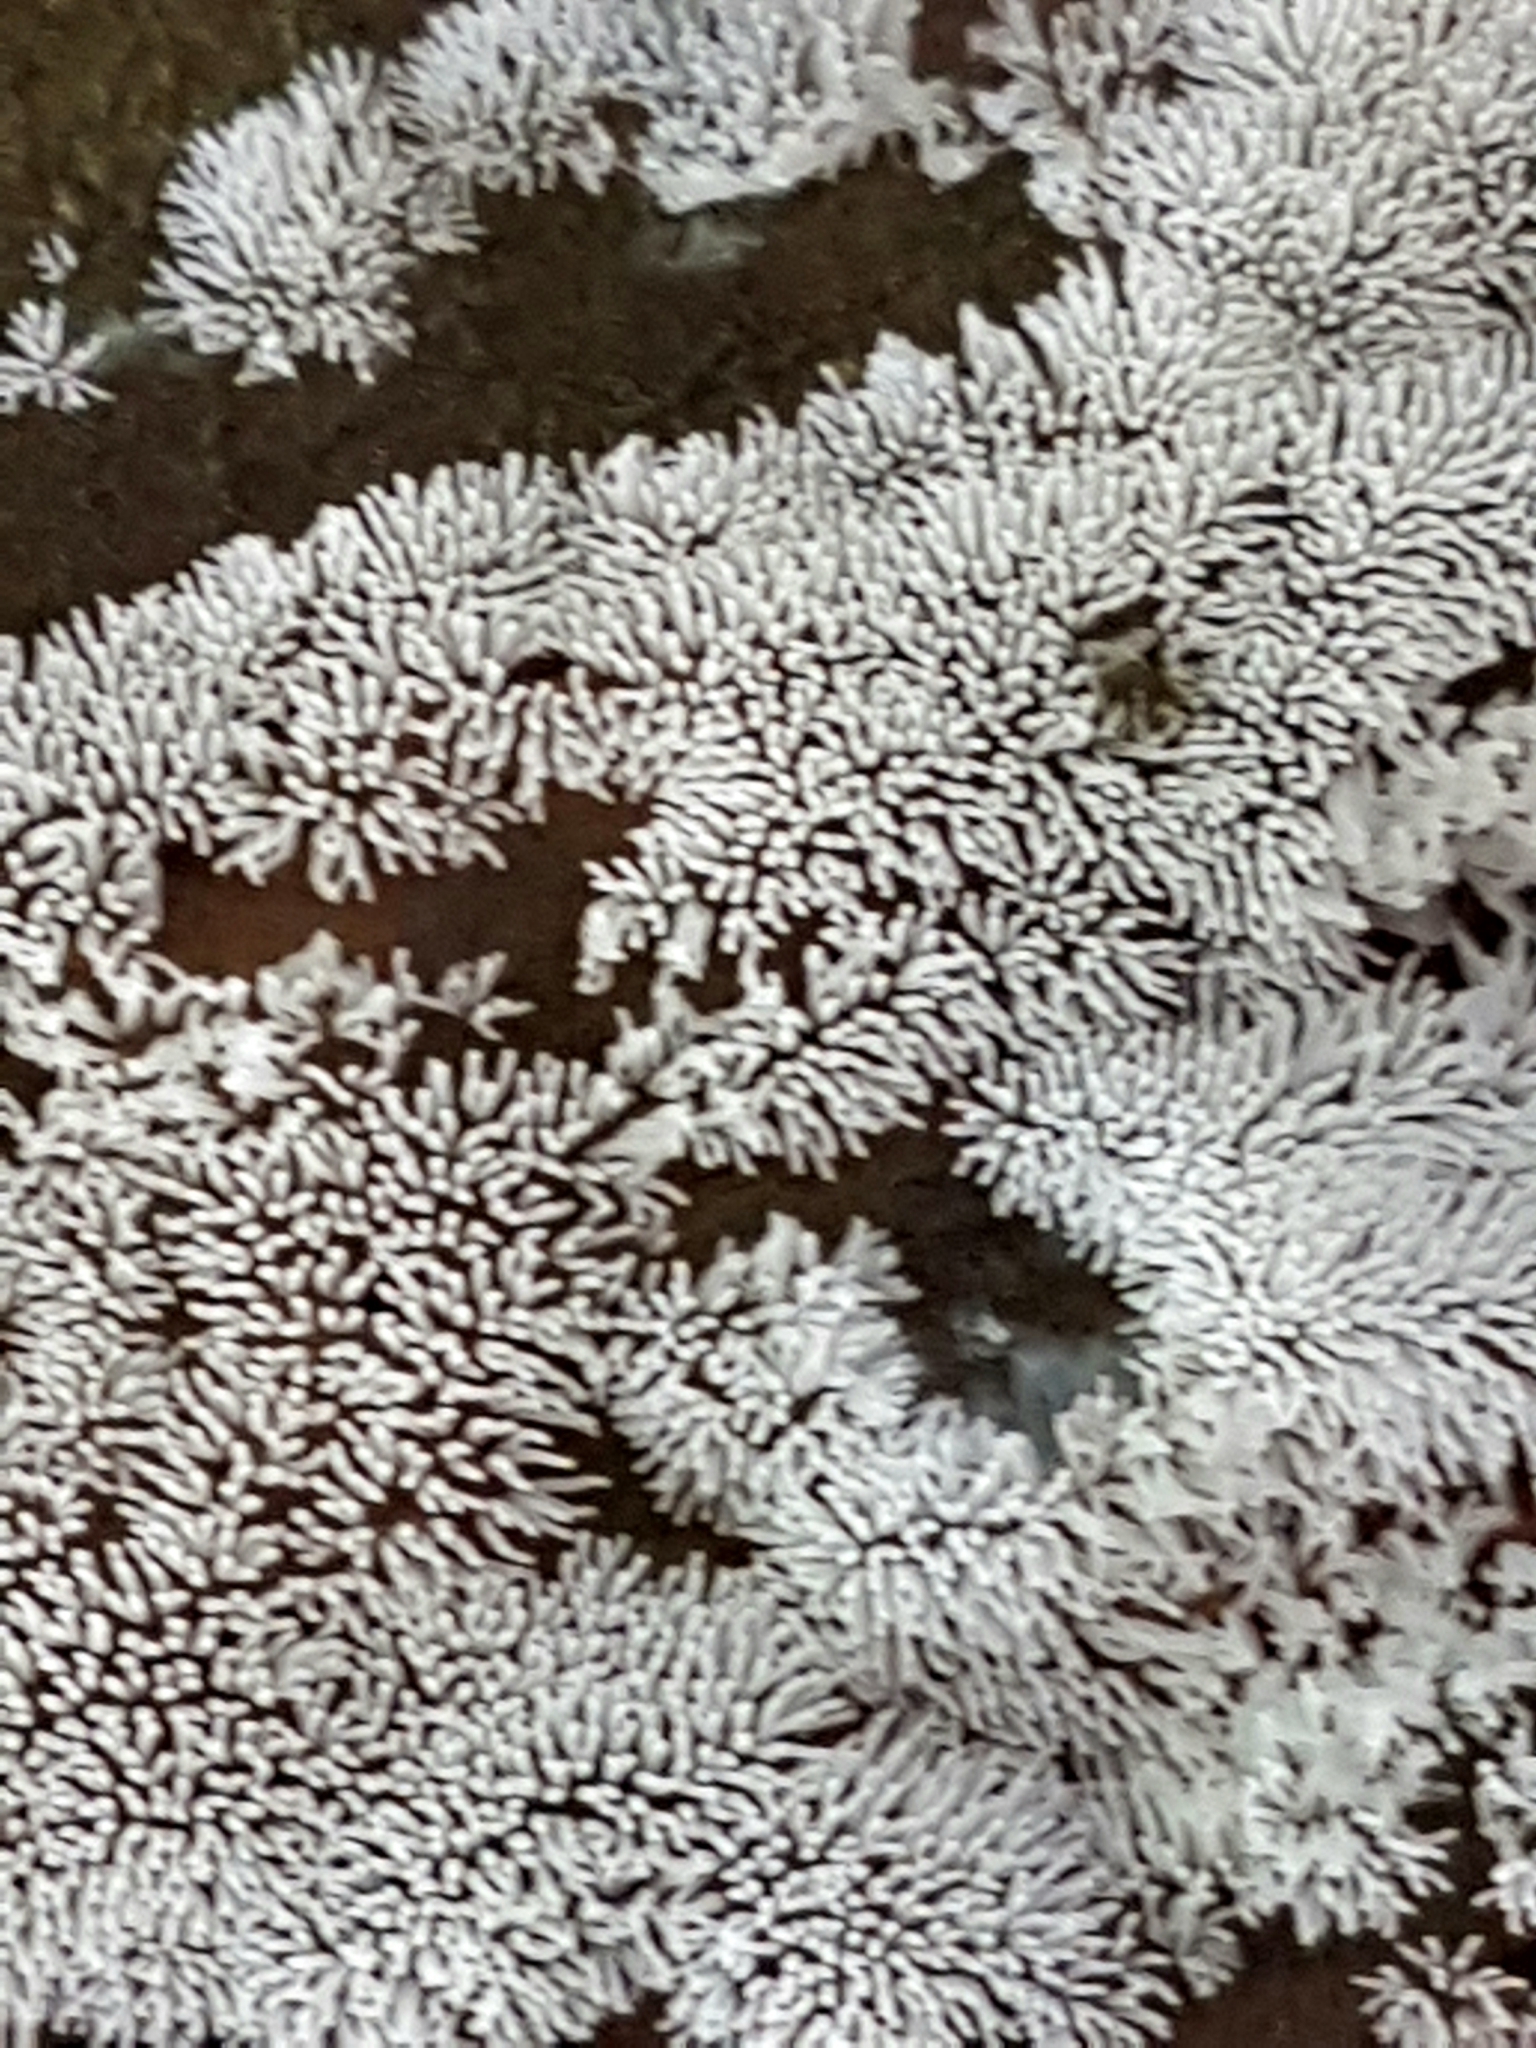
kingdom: Protozoa
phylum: Mycetozoa
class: Protosteliomycetes
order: Ceratiomyxales
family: Ceratiomyxaceae
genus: Ceratiomyxa
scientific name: Ceratiomyxa fruticulosa
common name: Honeycomb coral slime mold
